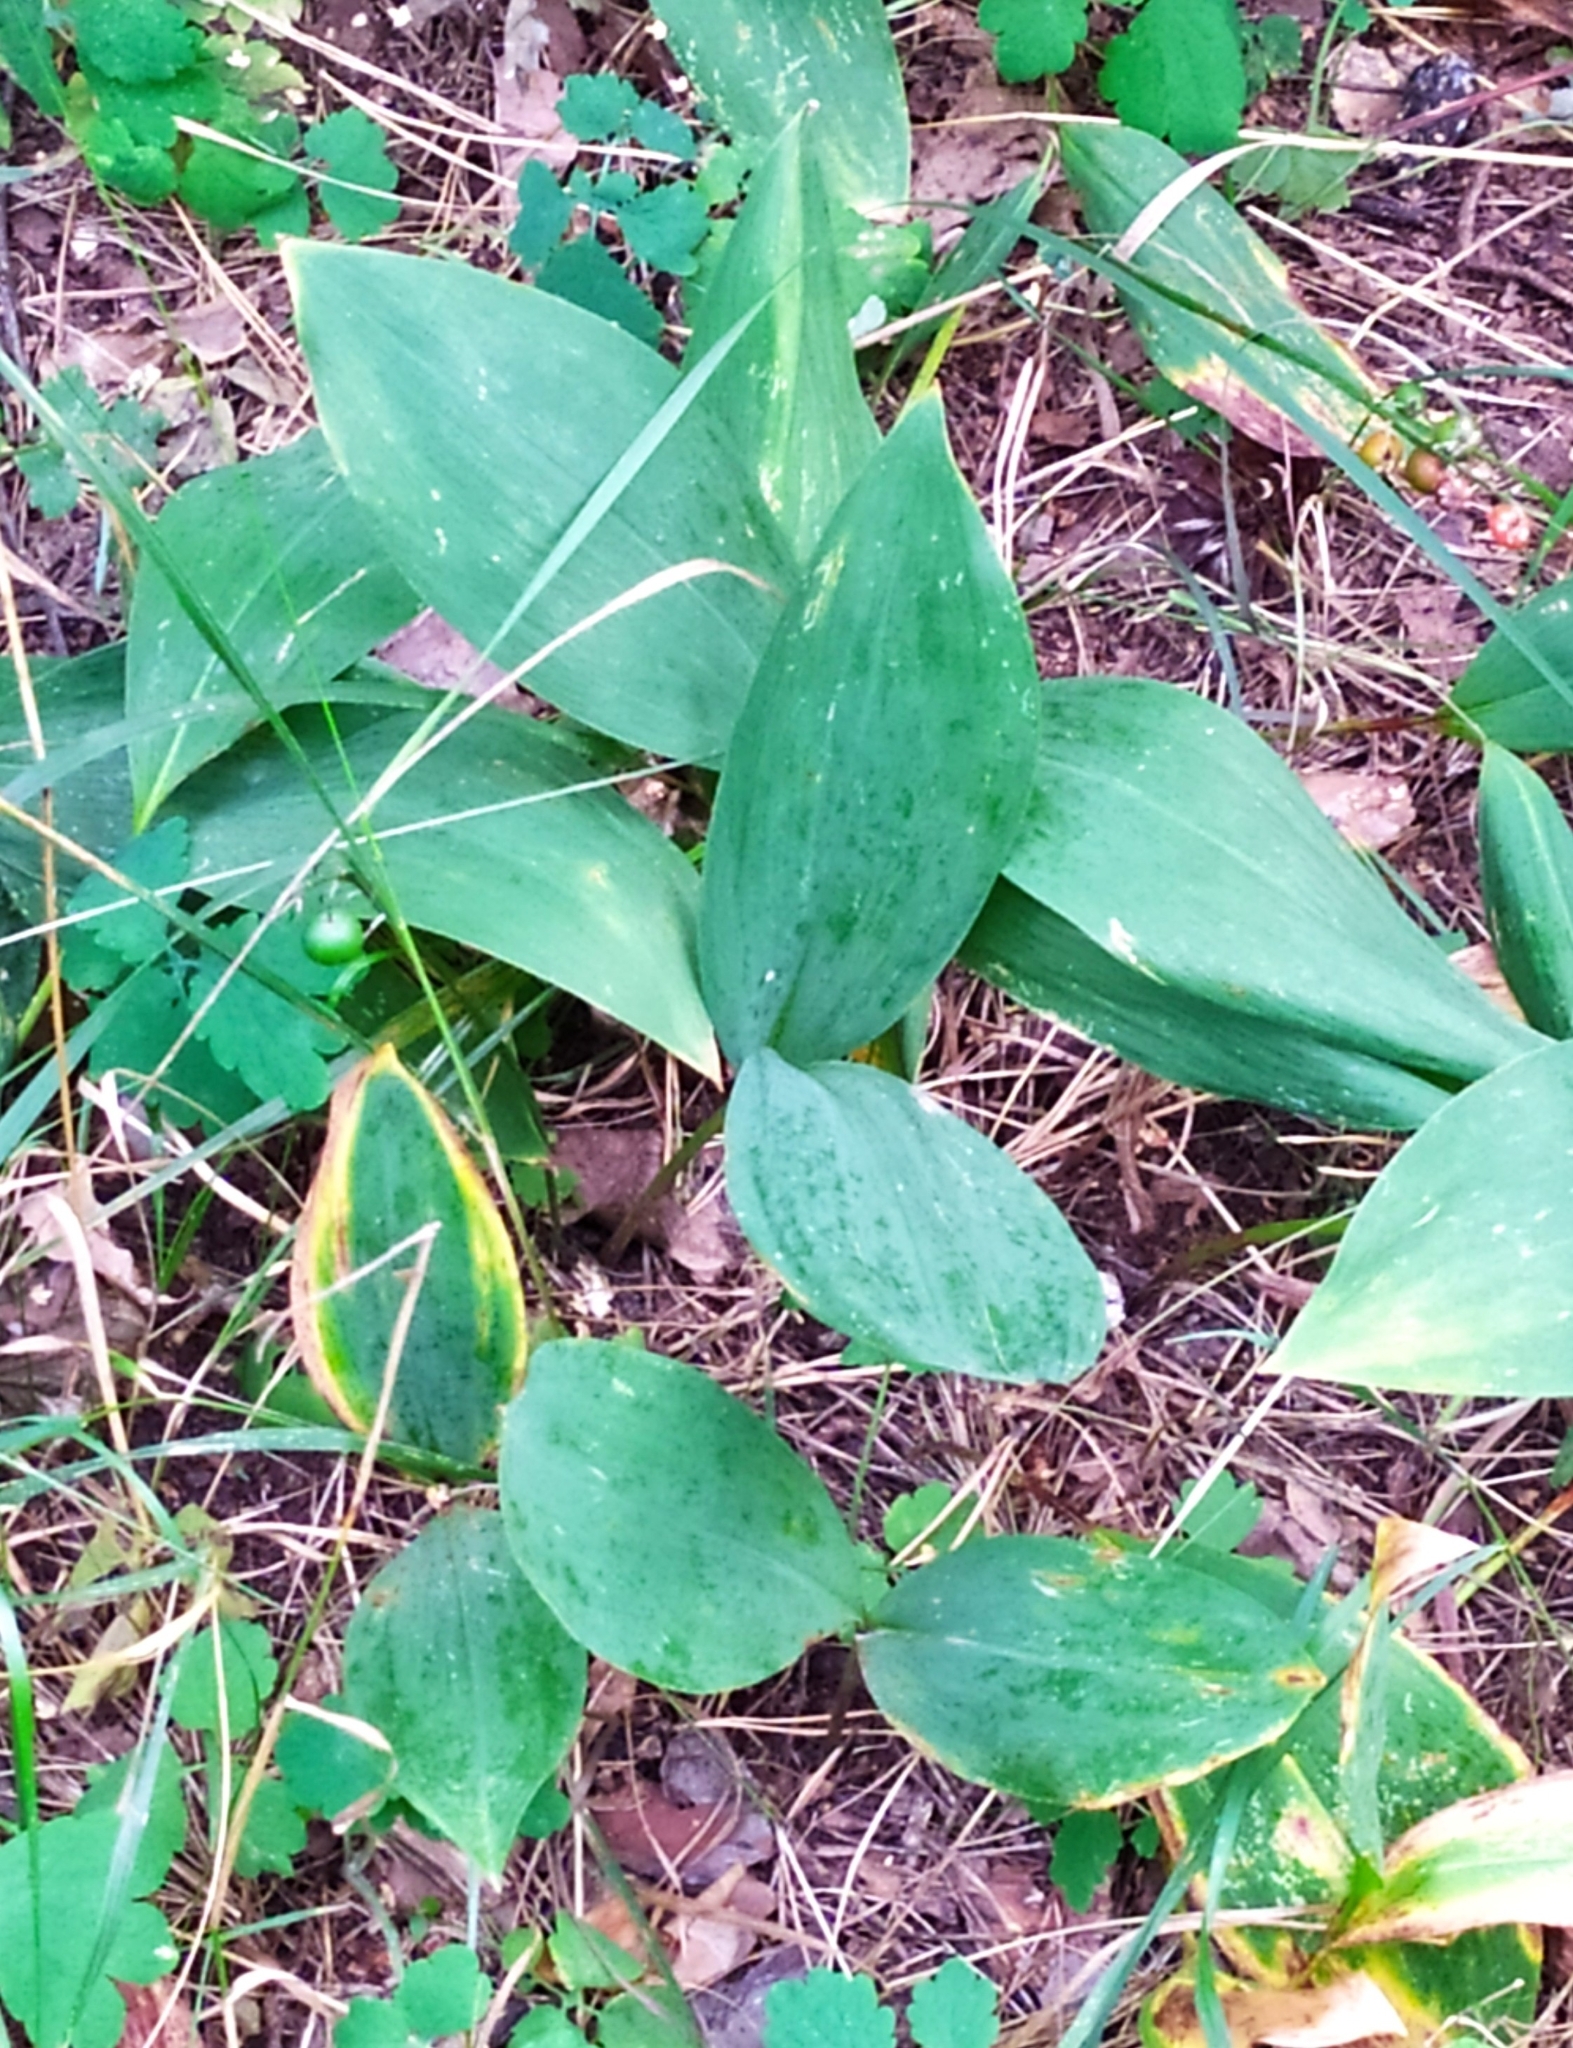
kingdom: Plantae
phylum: Tracheophyta
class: Liliopsida
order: Asparagales
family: Asparagaceae
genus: Convallaria
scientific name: Convallaria majalis
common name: Lily-of-the-valley
